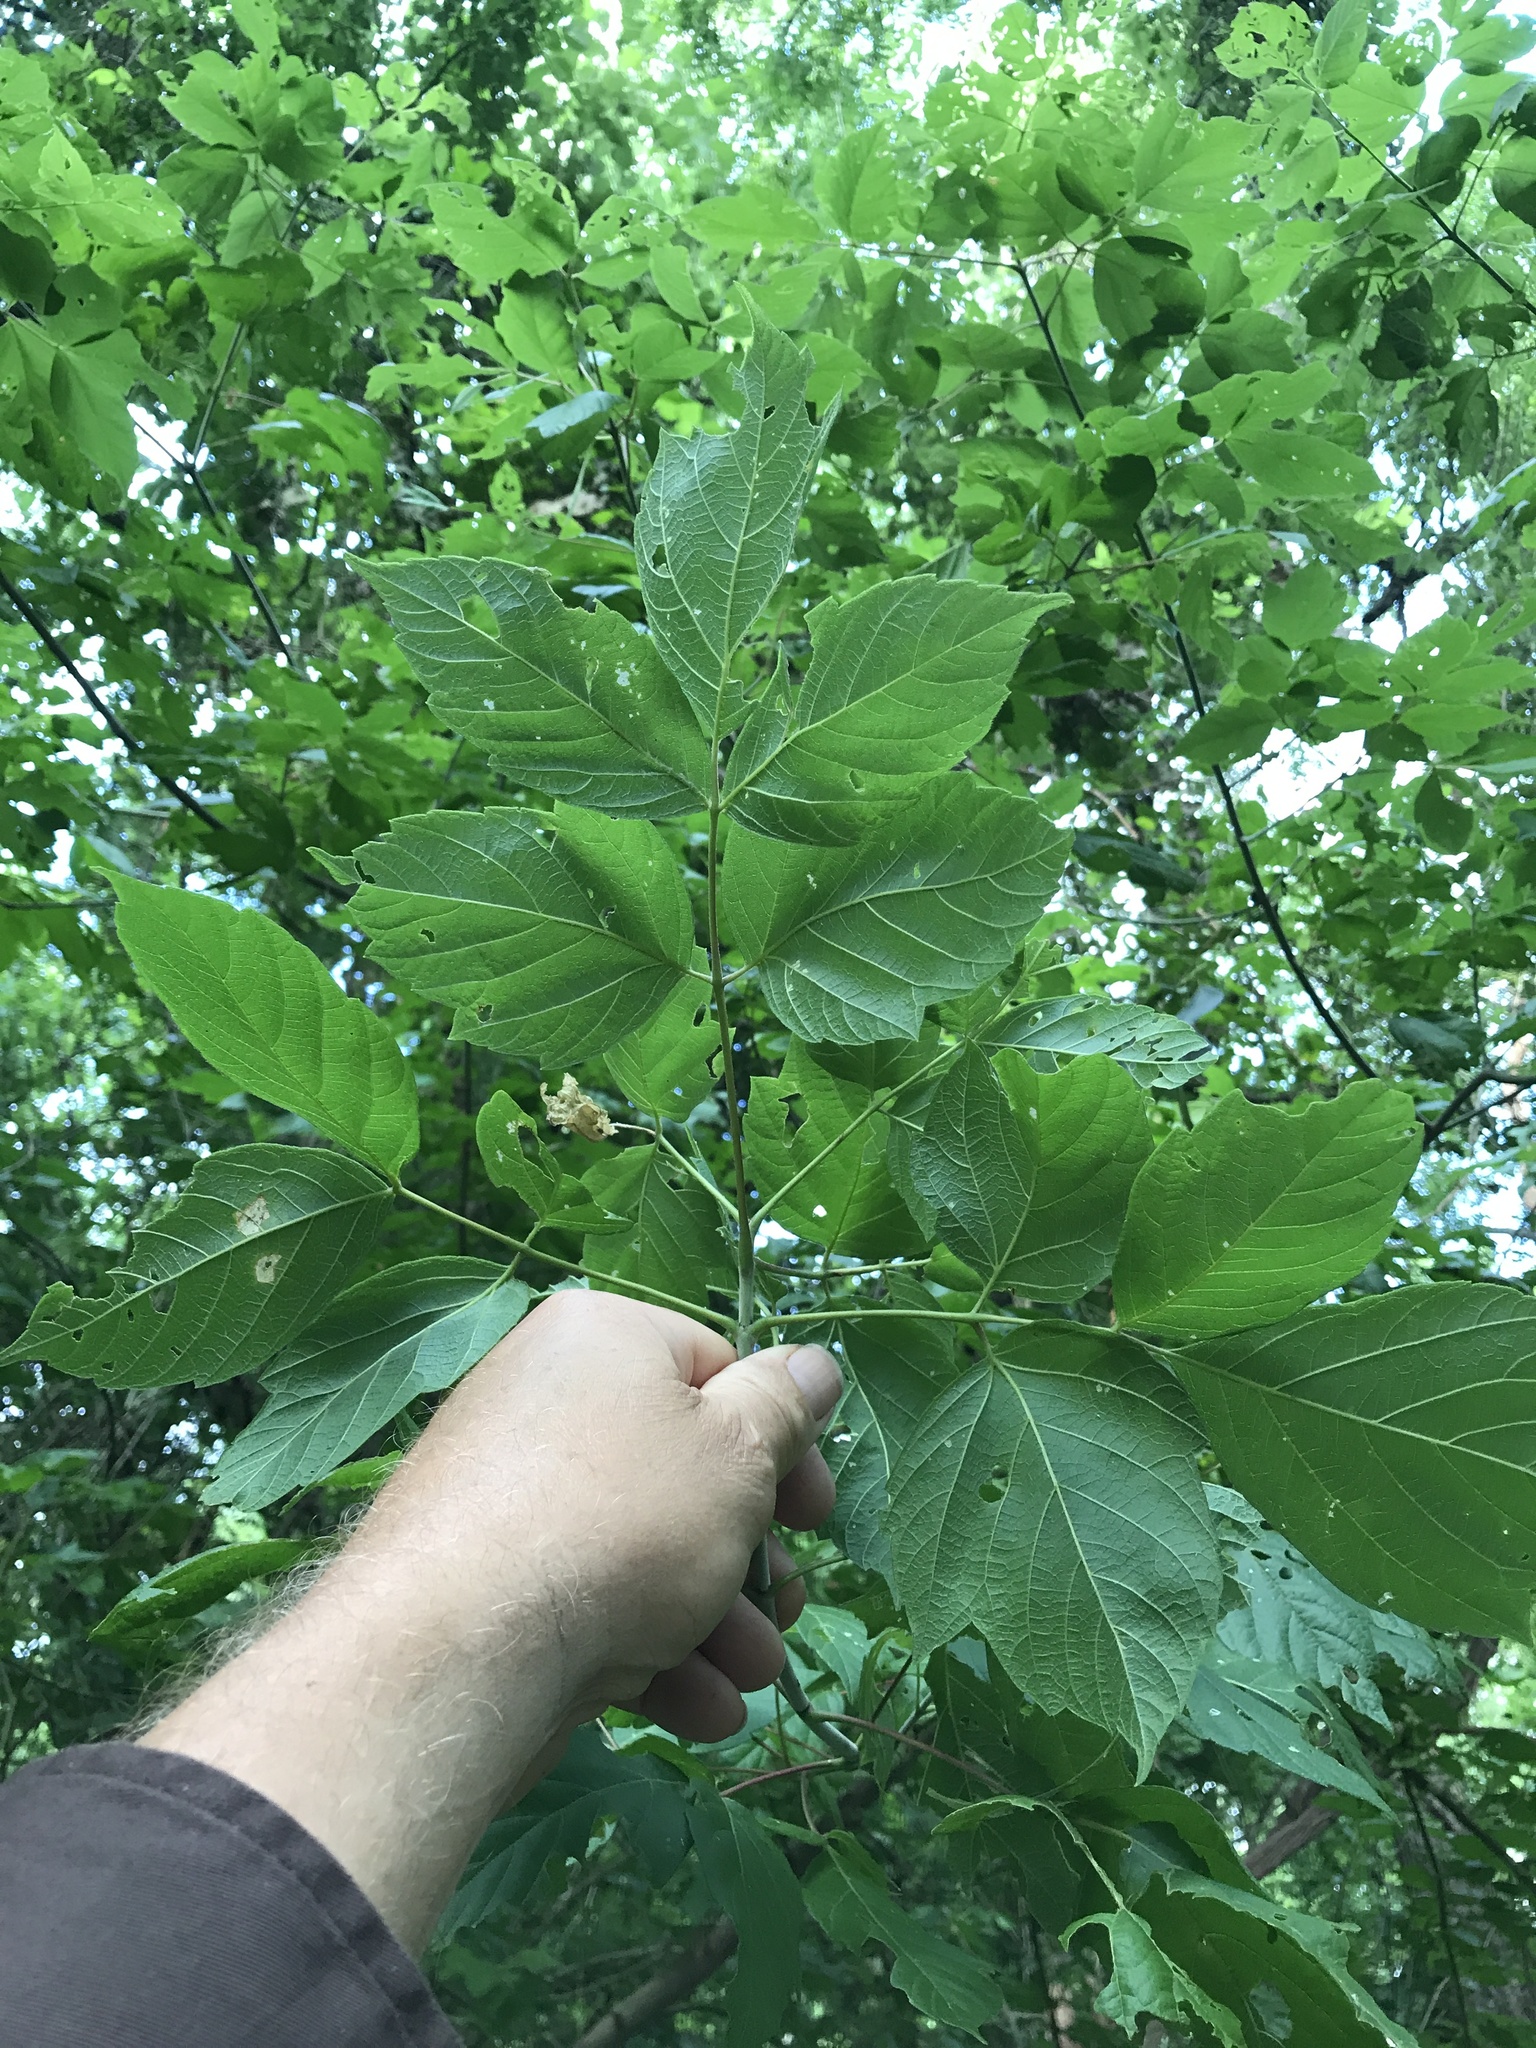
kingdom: Plantae
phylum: Tracheophyta
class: Magnoliopsida
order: Sapindales
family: Sapindaceae
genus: Acer
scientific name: Acer negundo
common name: Ashleaf maple
